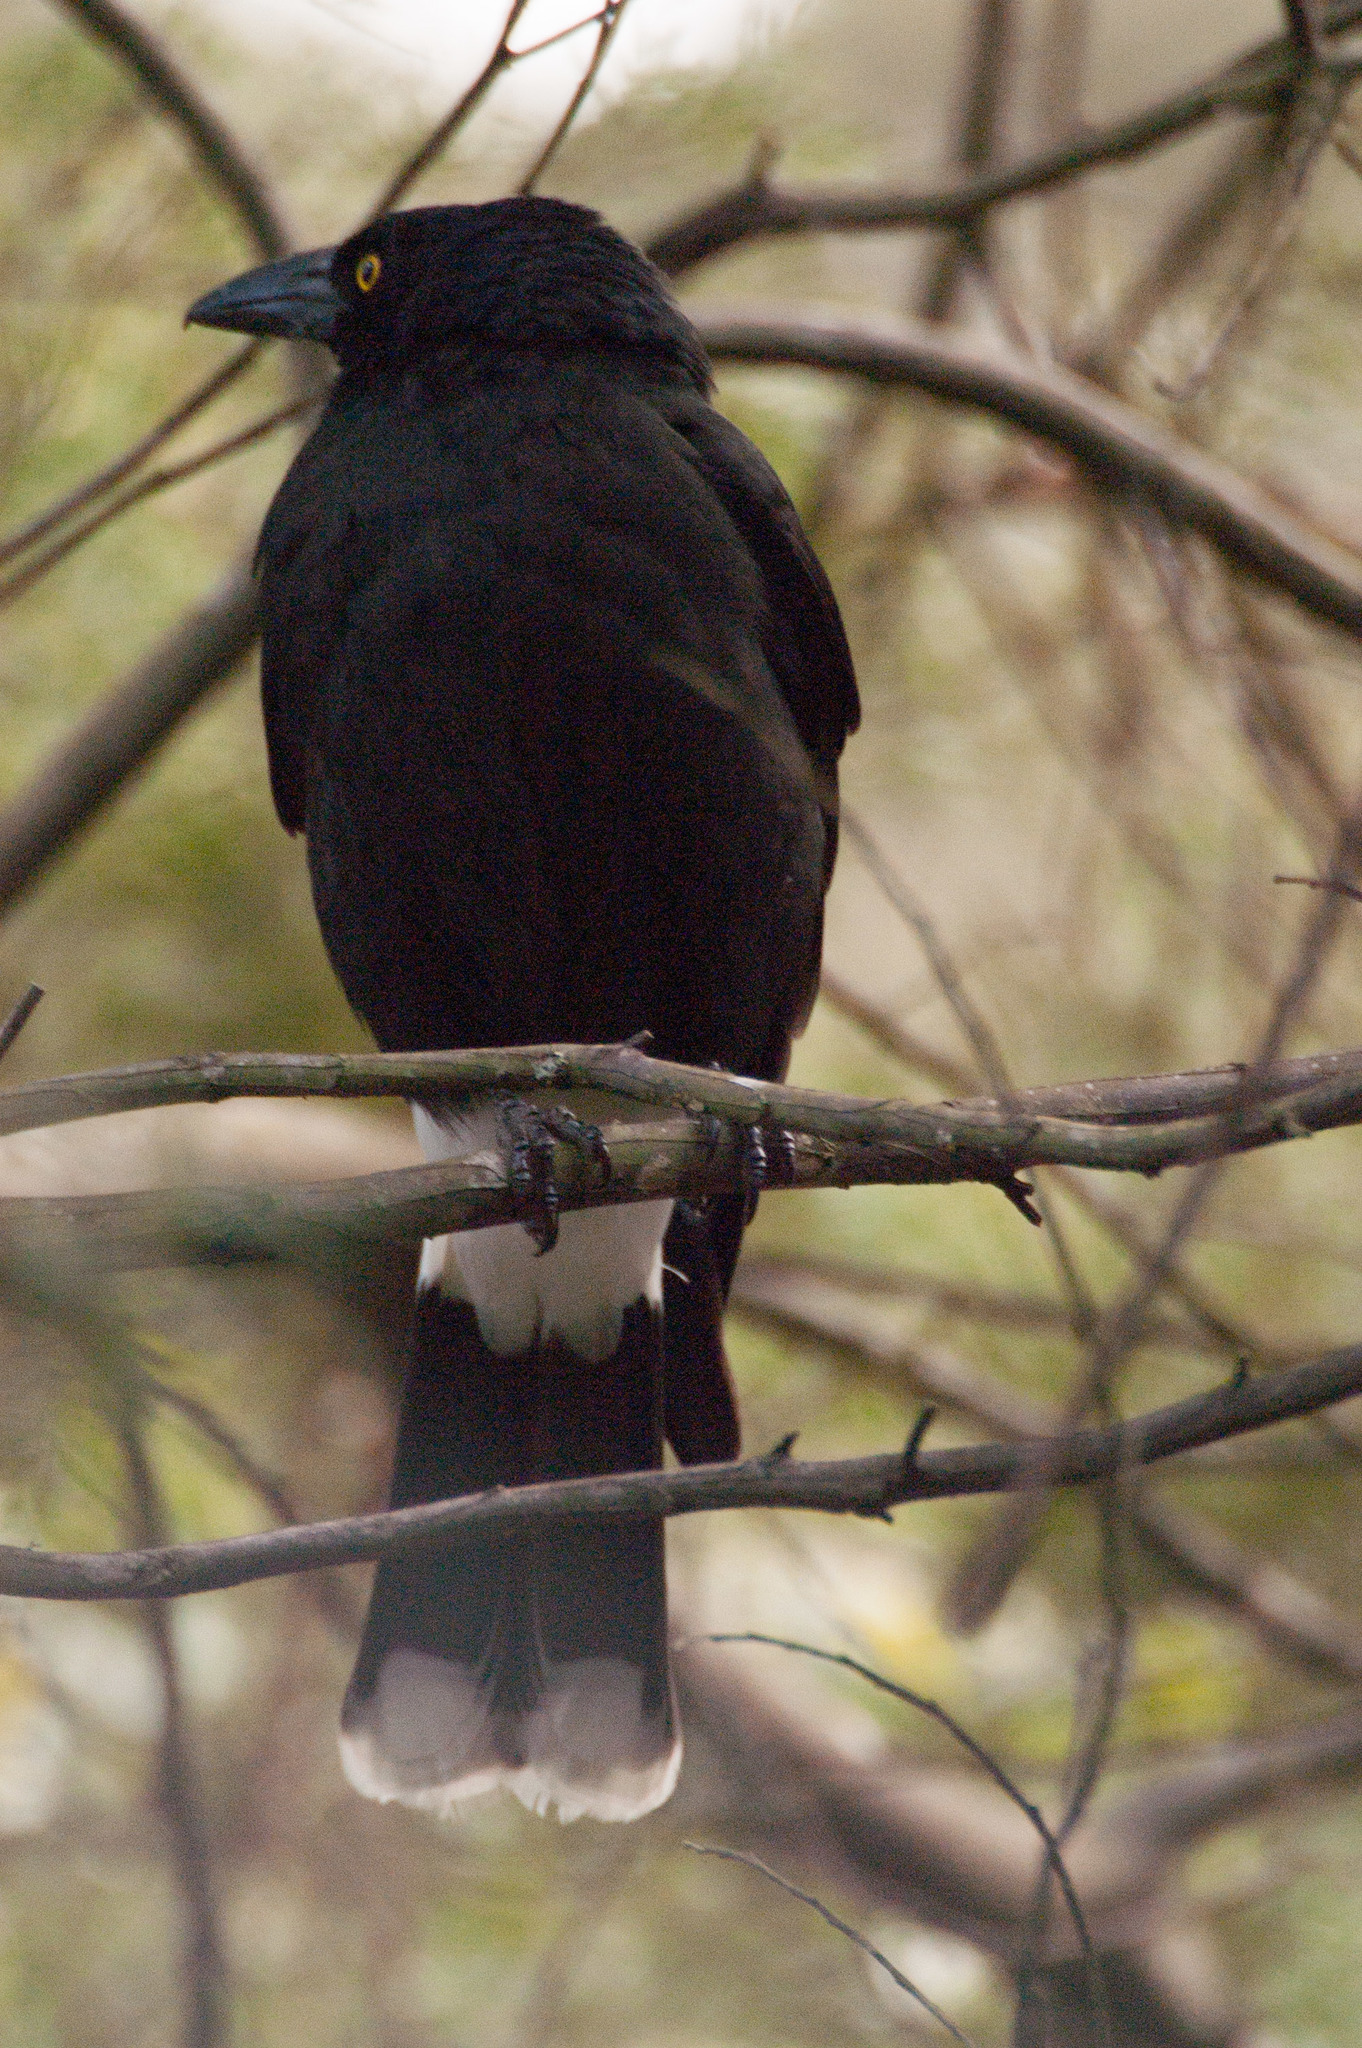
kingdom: Animalia
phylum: Chordata
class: Aves
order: Passeriformes
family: Cracticidae
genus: Strepera
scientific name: Strepera graculina
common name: Pied currawong
